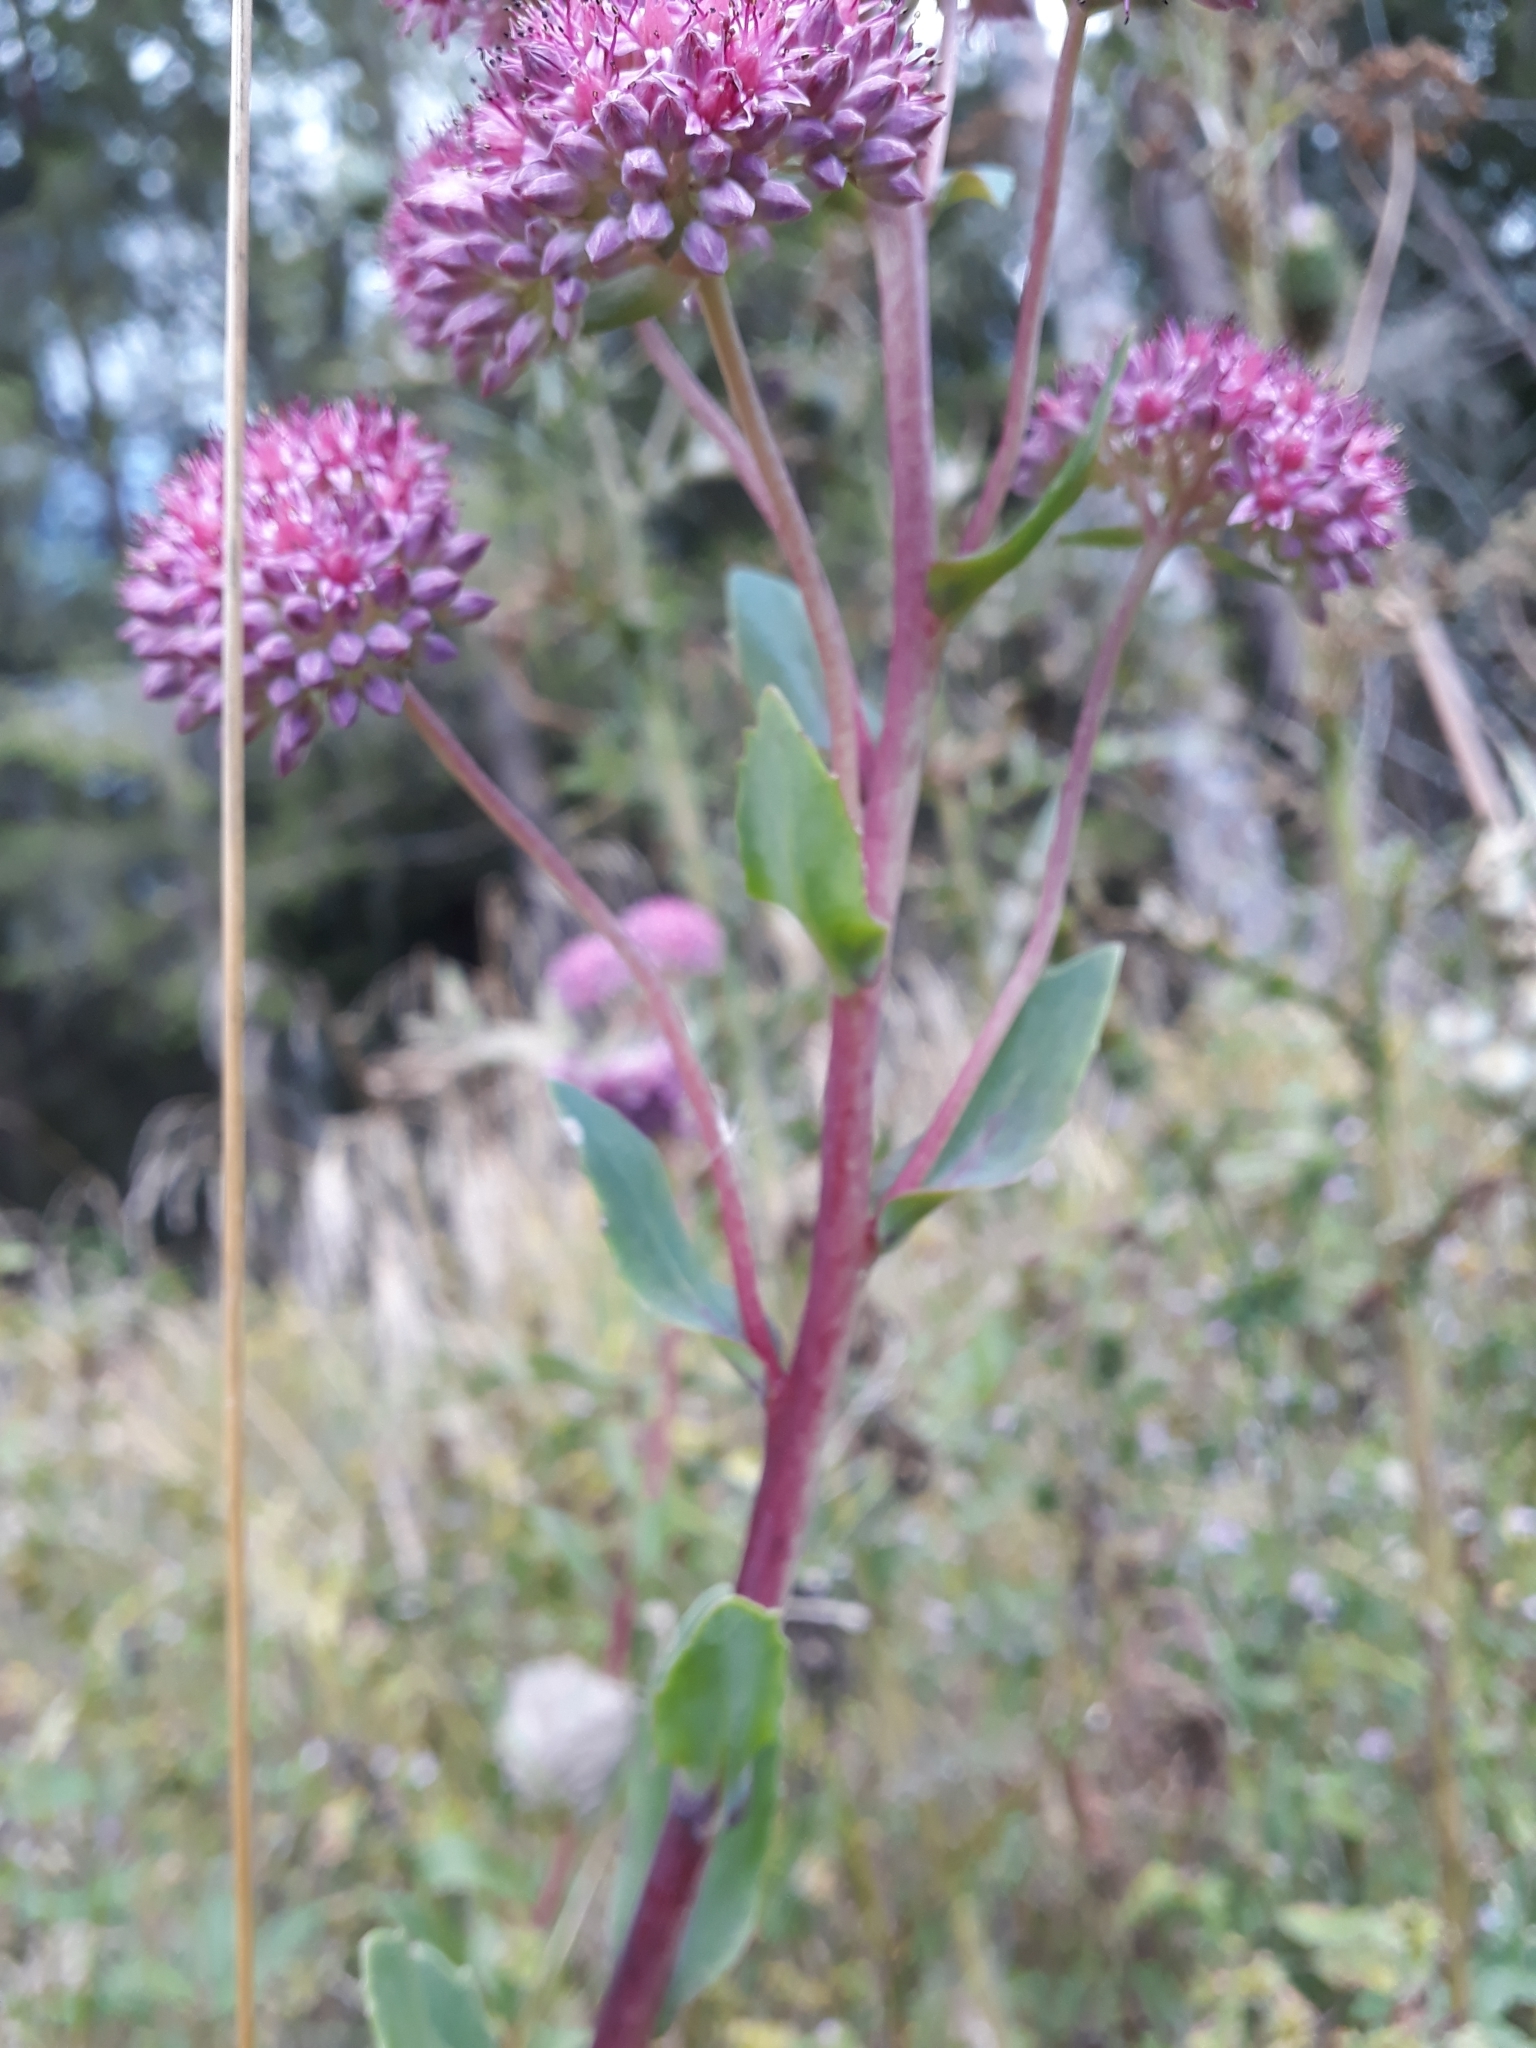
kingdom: Plantae
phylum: Tracheophyta
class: Magnoliopsida
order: Saxifragales
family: Crassulaceae
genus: Hylotelephium
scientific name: Hylotelephium telephium
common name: Live-forever
